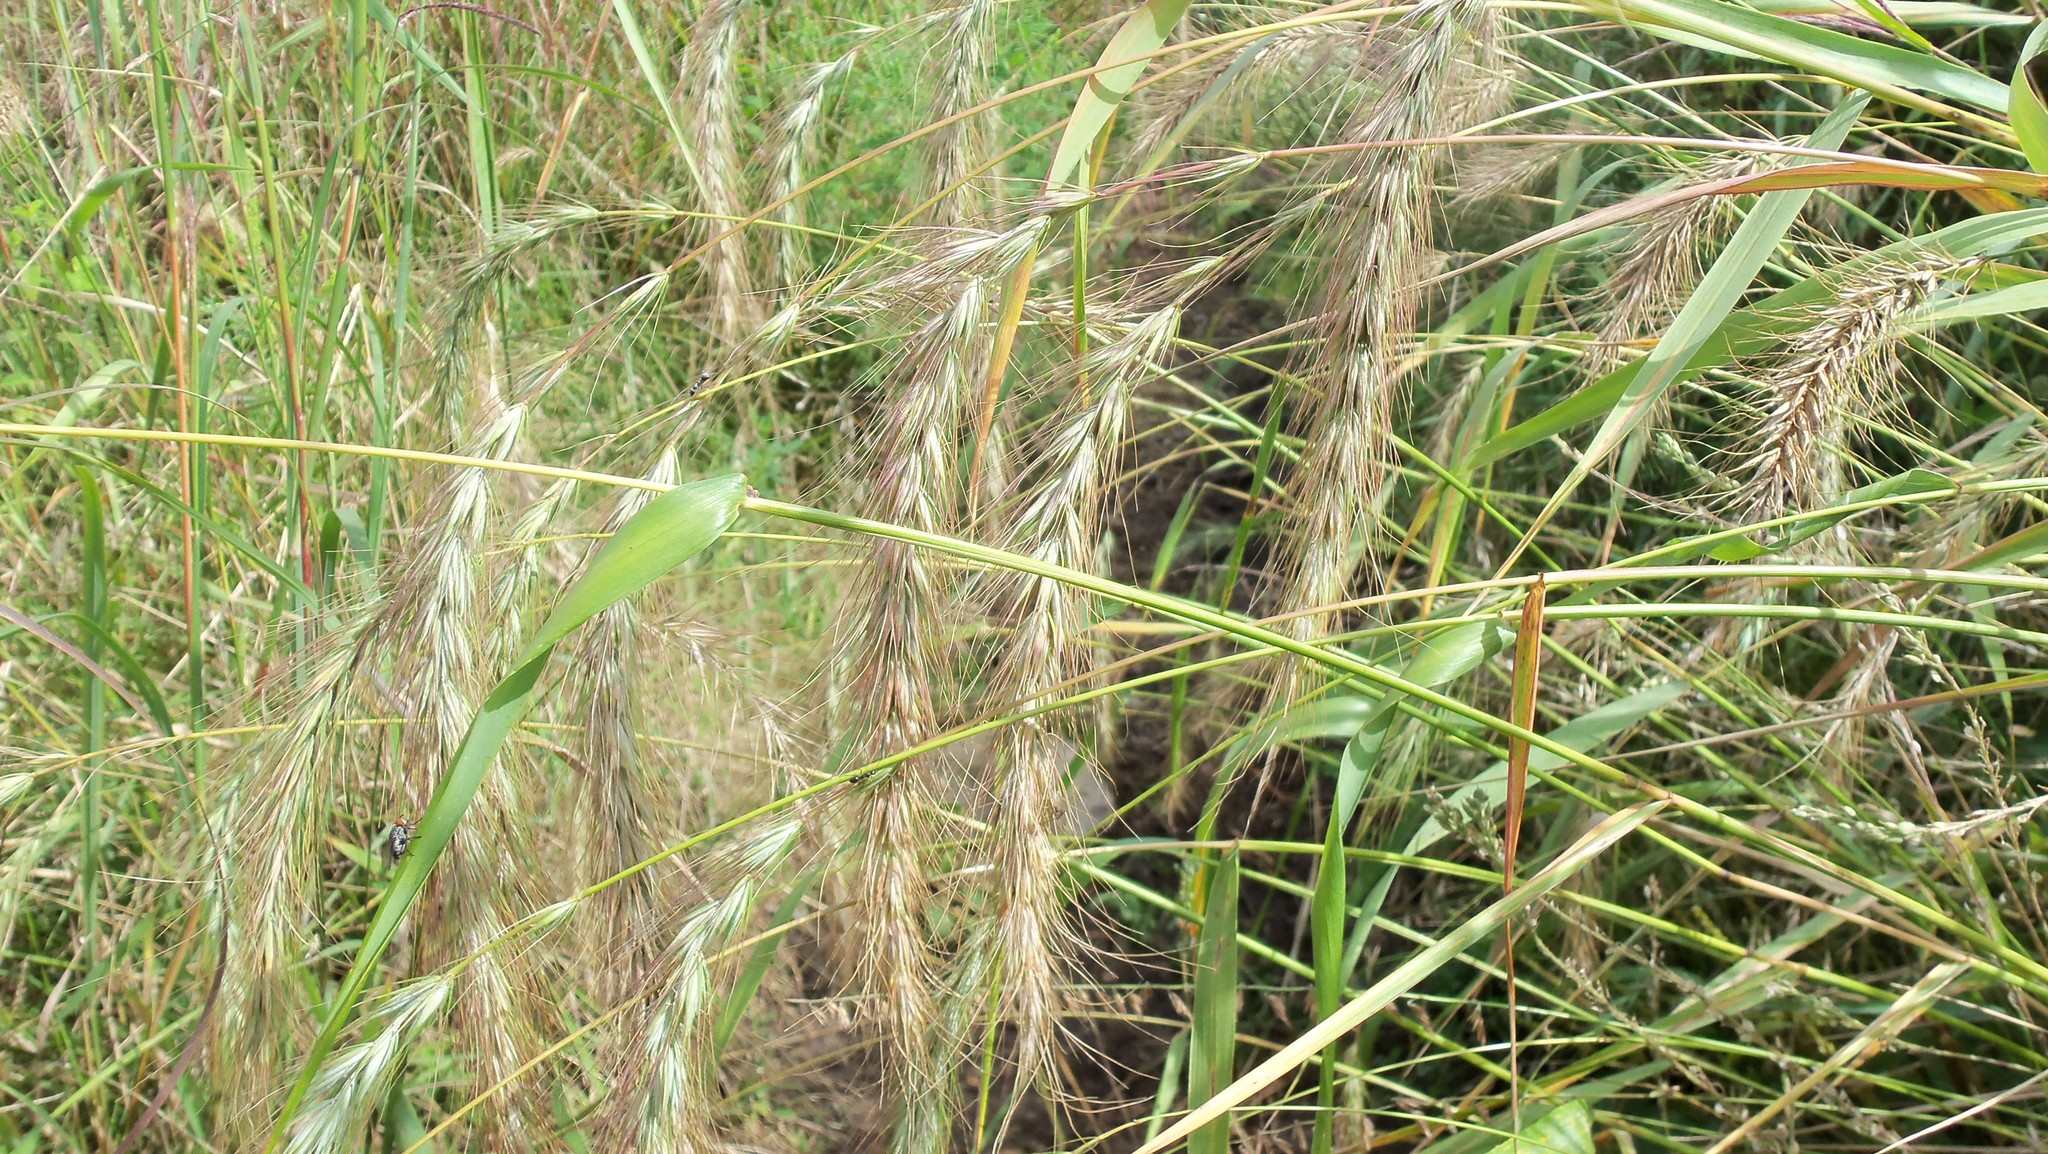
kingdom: Plantae
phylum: Tracheophyta
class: Liliopsida
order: Poales
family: Poaceae
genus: Elymus
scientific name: Elymus canadensis
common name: Canada wild rye
